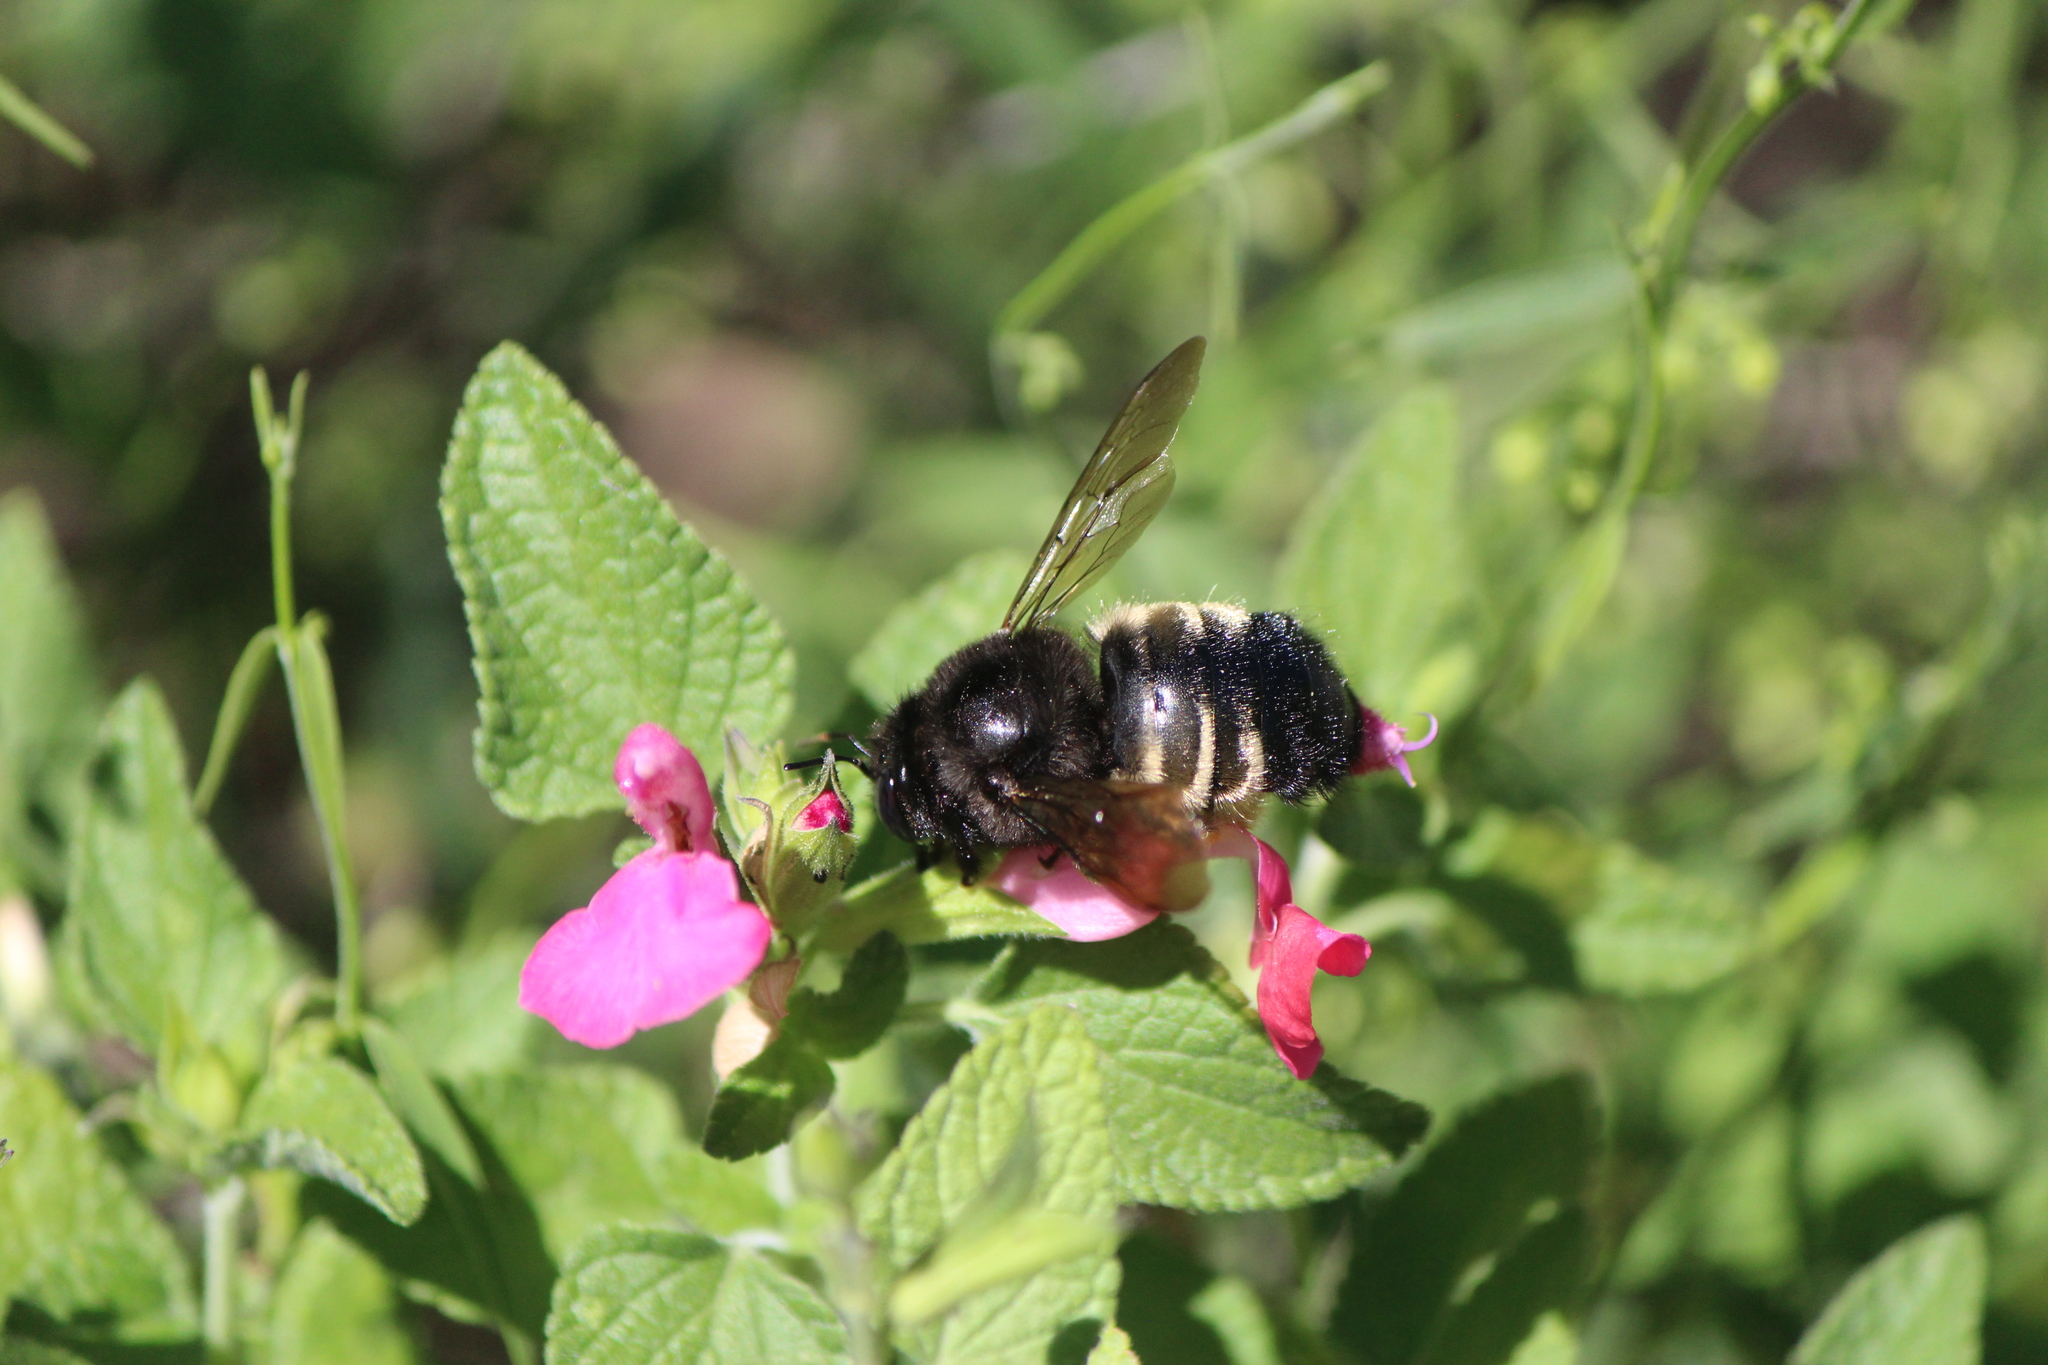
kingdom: Animalia
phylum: Arthropoda
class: Insecta
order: Hymenoptera
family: Apidae
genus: Xylocopa
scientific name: Xylocopa tabaniformis
